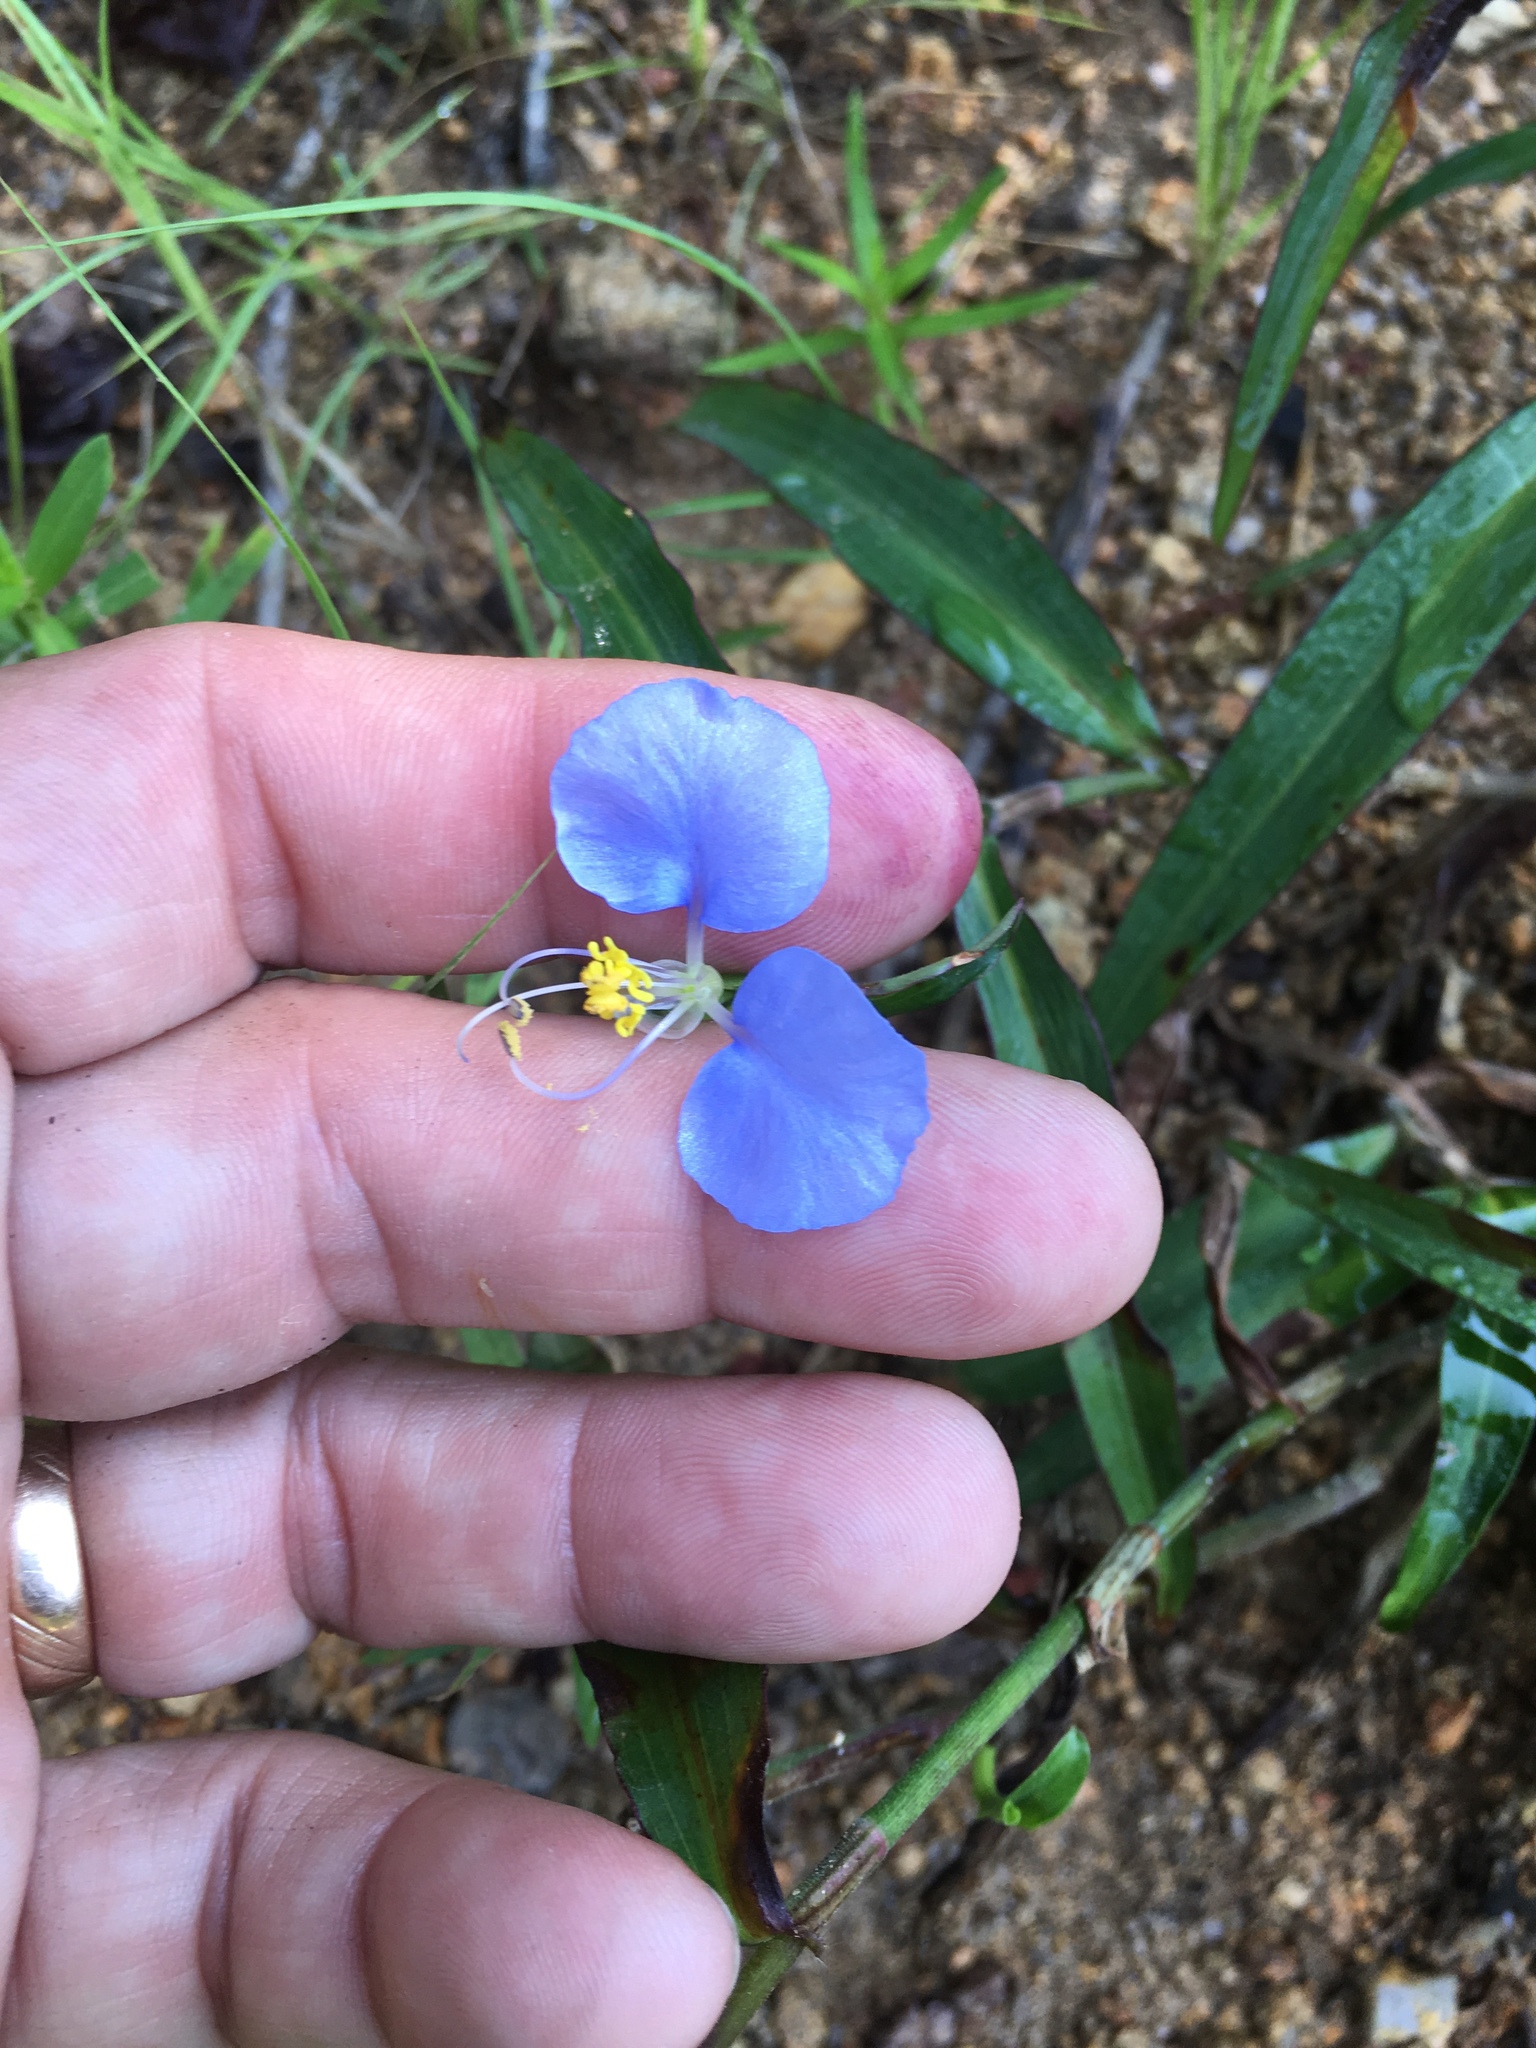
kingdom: Plantae
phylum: Tracheophyta
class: Liliopsida
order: Commelinales
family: Commelinaceae
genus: Commelina
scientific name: Commelina erecta
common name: Blousel blommetjie
